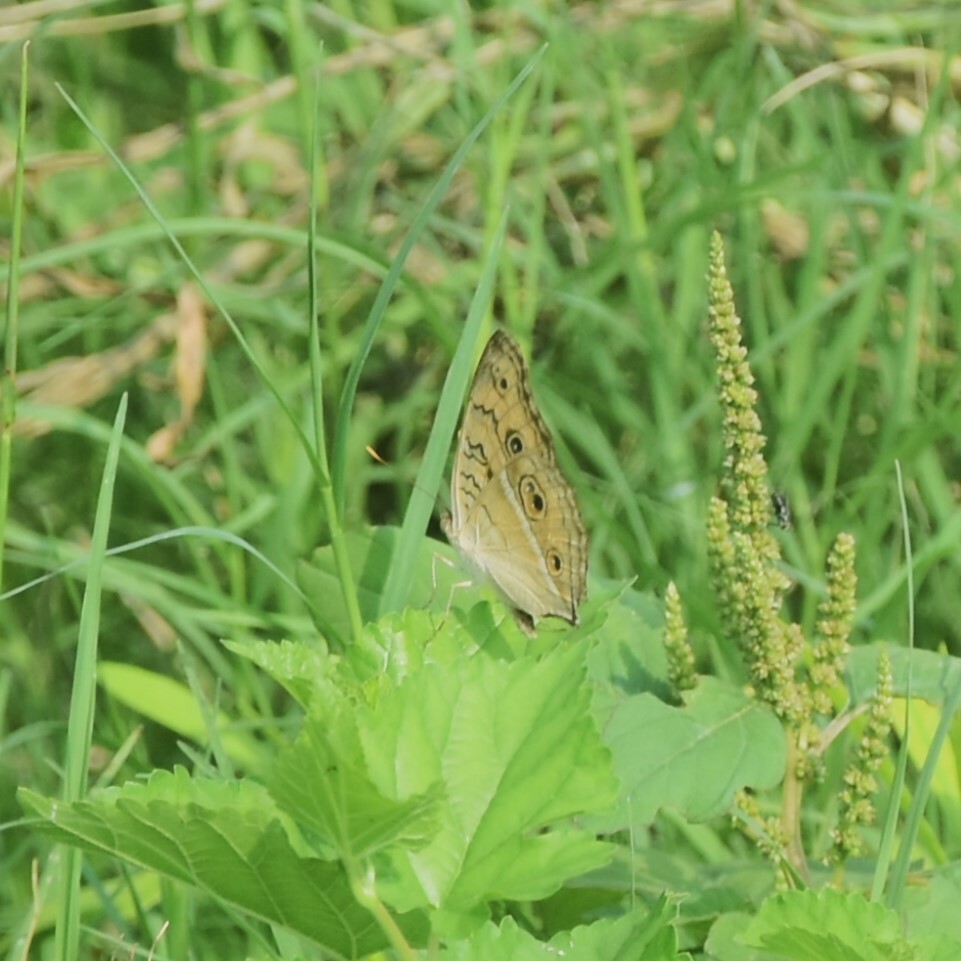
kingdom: Animalia
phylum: Arthropoda
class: Insecta
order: Lepidoptera
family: Nymphalidae
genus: Junonia
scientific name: Junonia almana
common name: Peacock pansy
